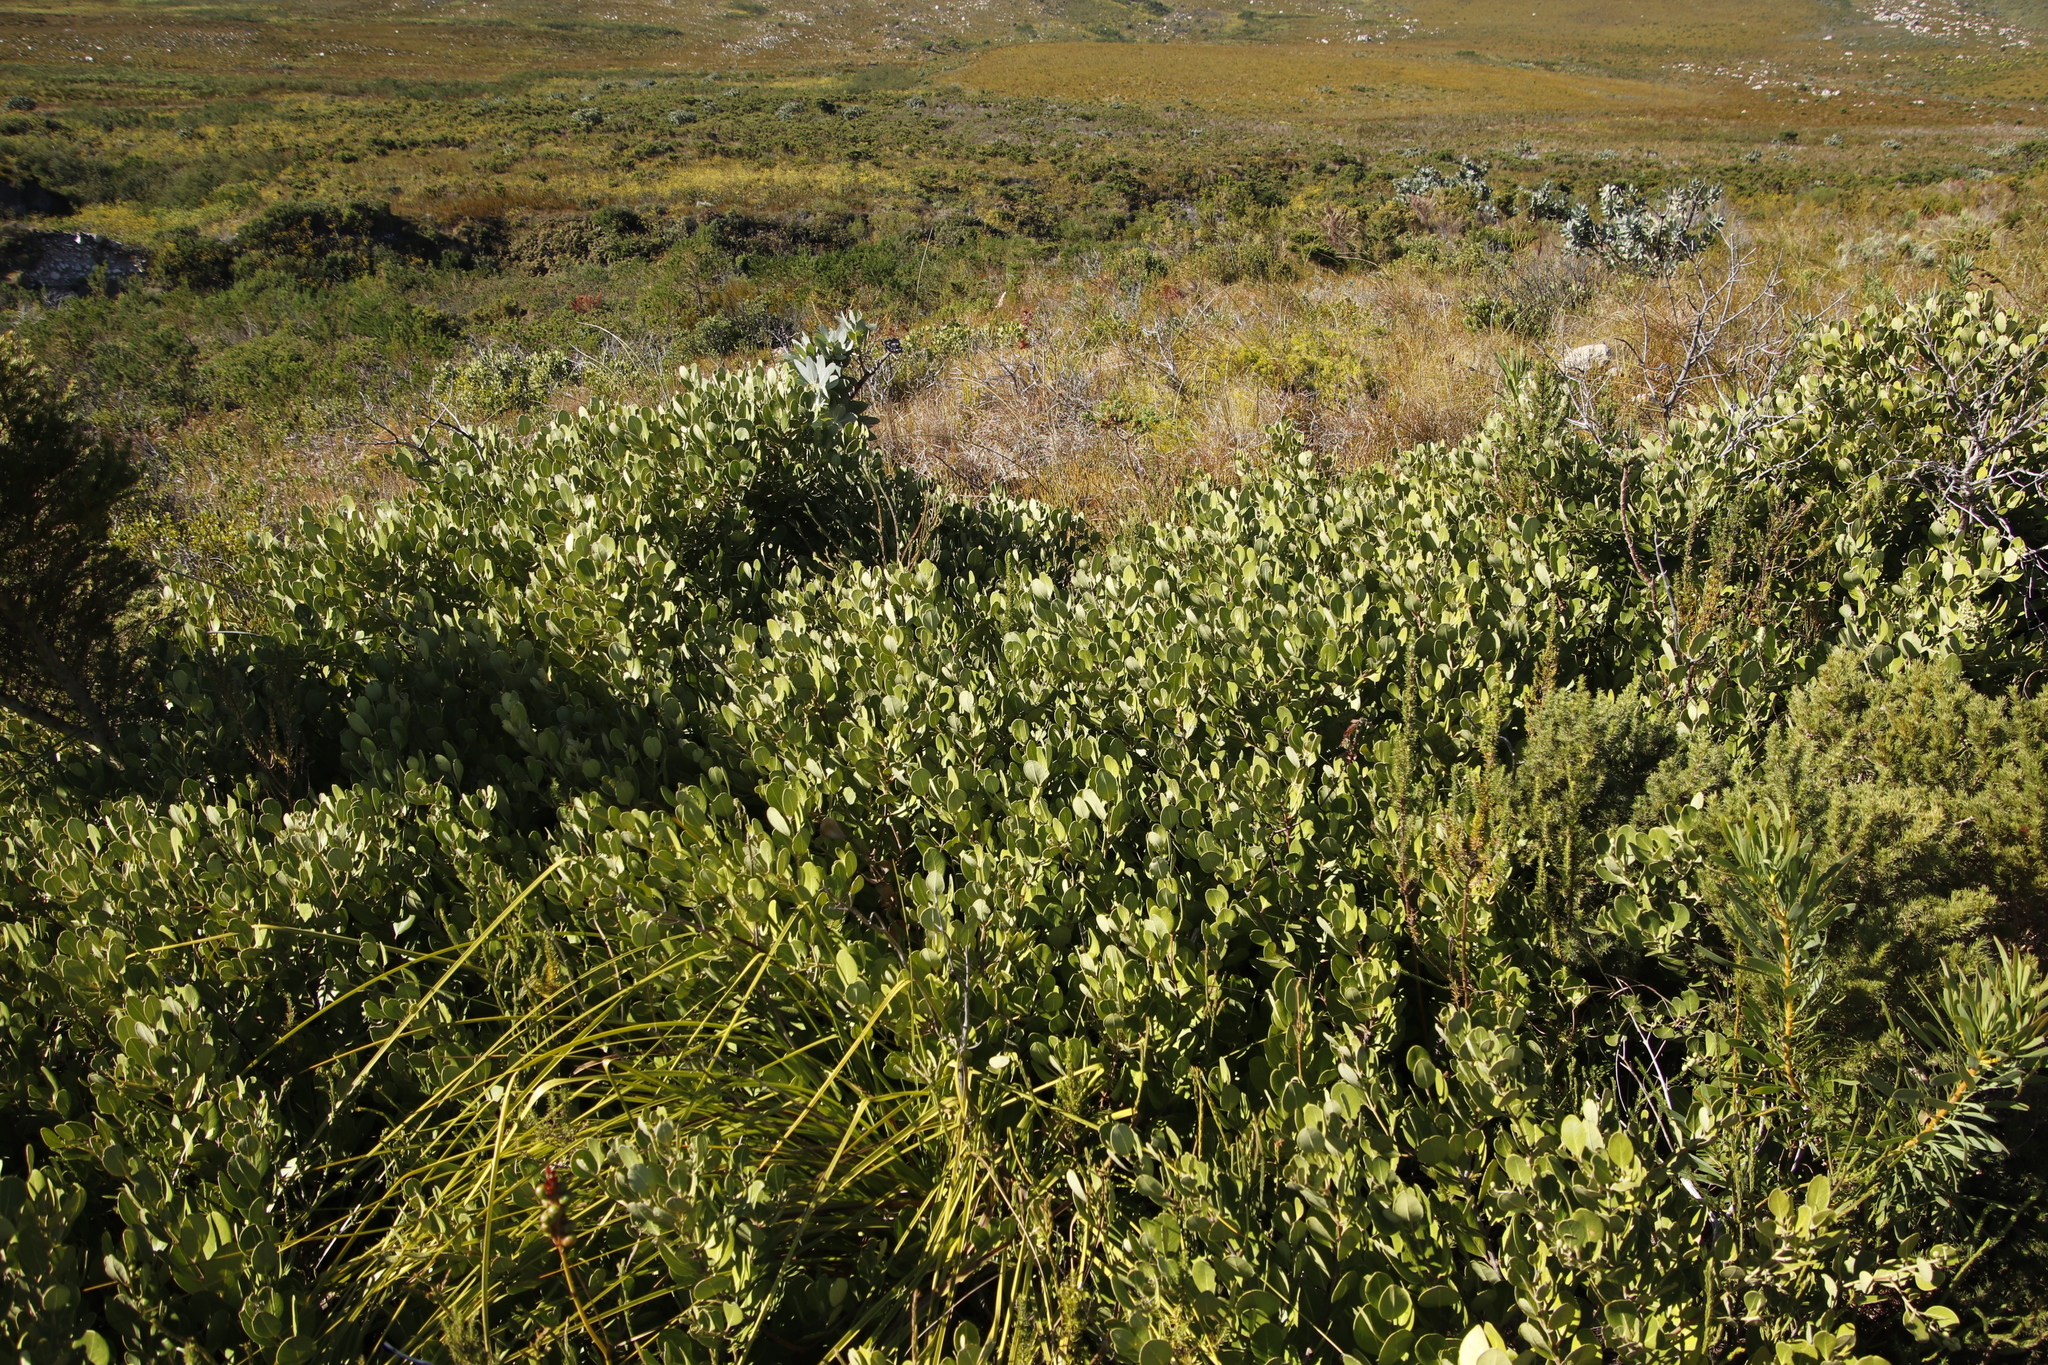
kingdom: Plantae
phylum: Tracheophyta
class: Magnoliopsida
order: Lamiales
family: Oleaceae
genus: Olea
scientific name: Olea capensis
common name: Black ironwood
